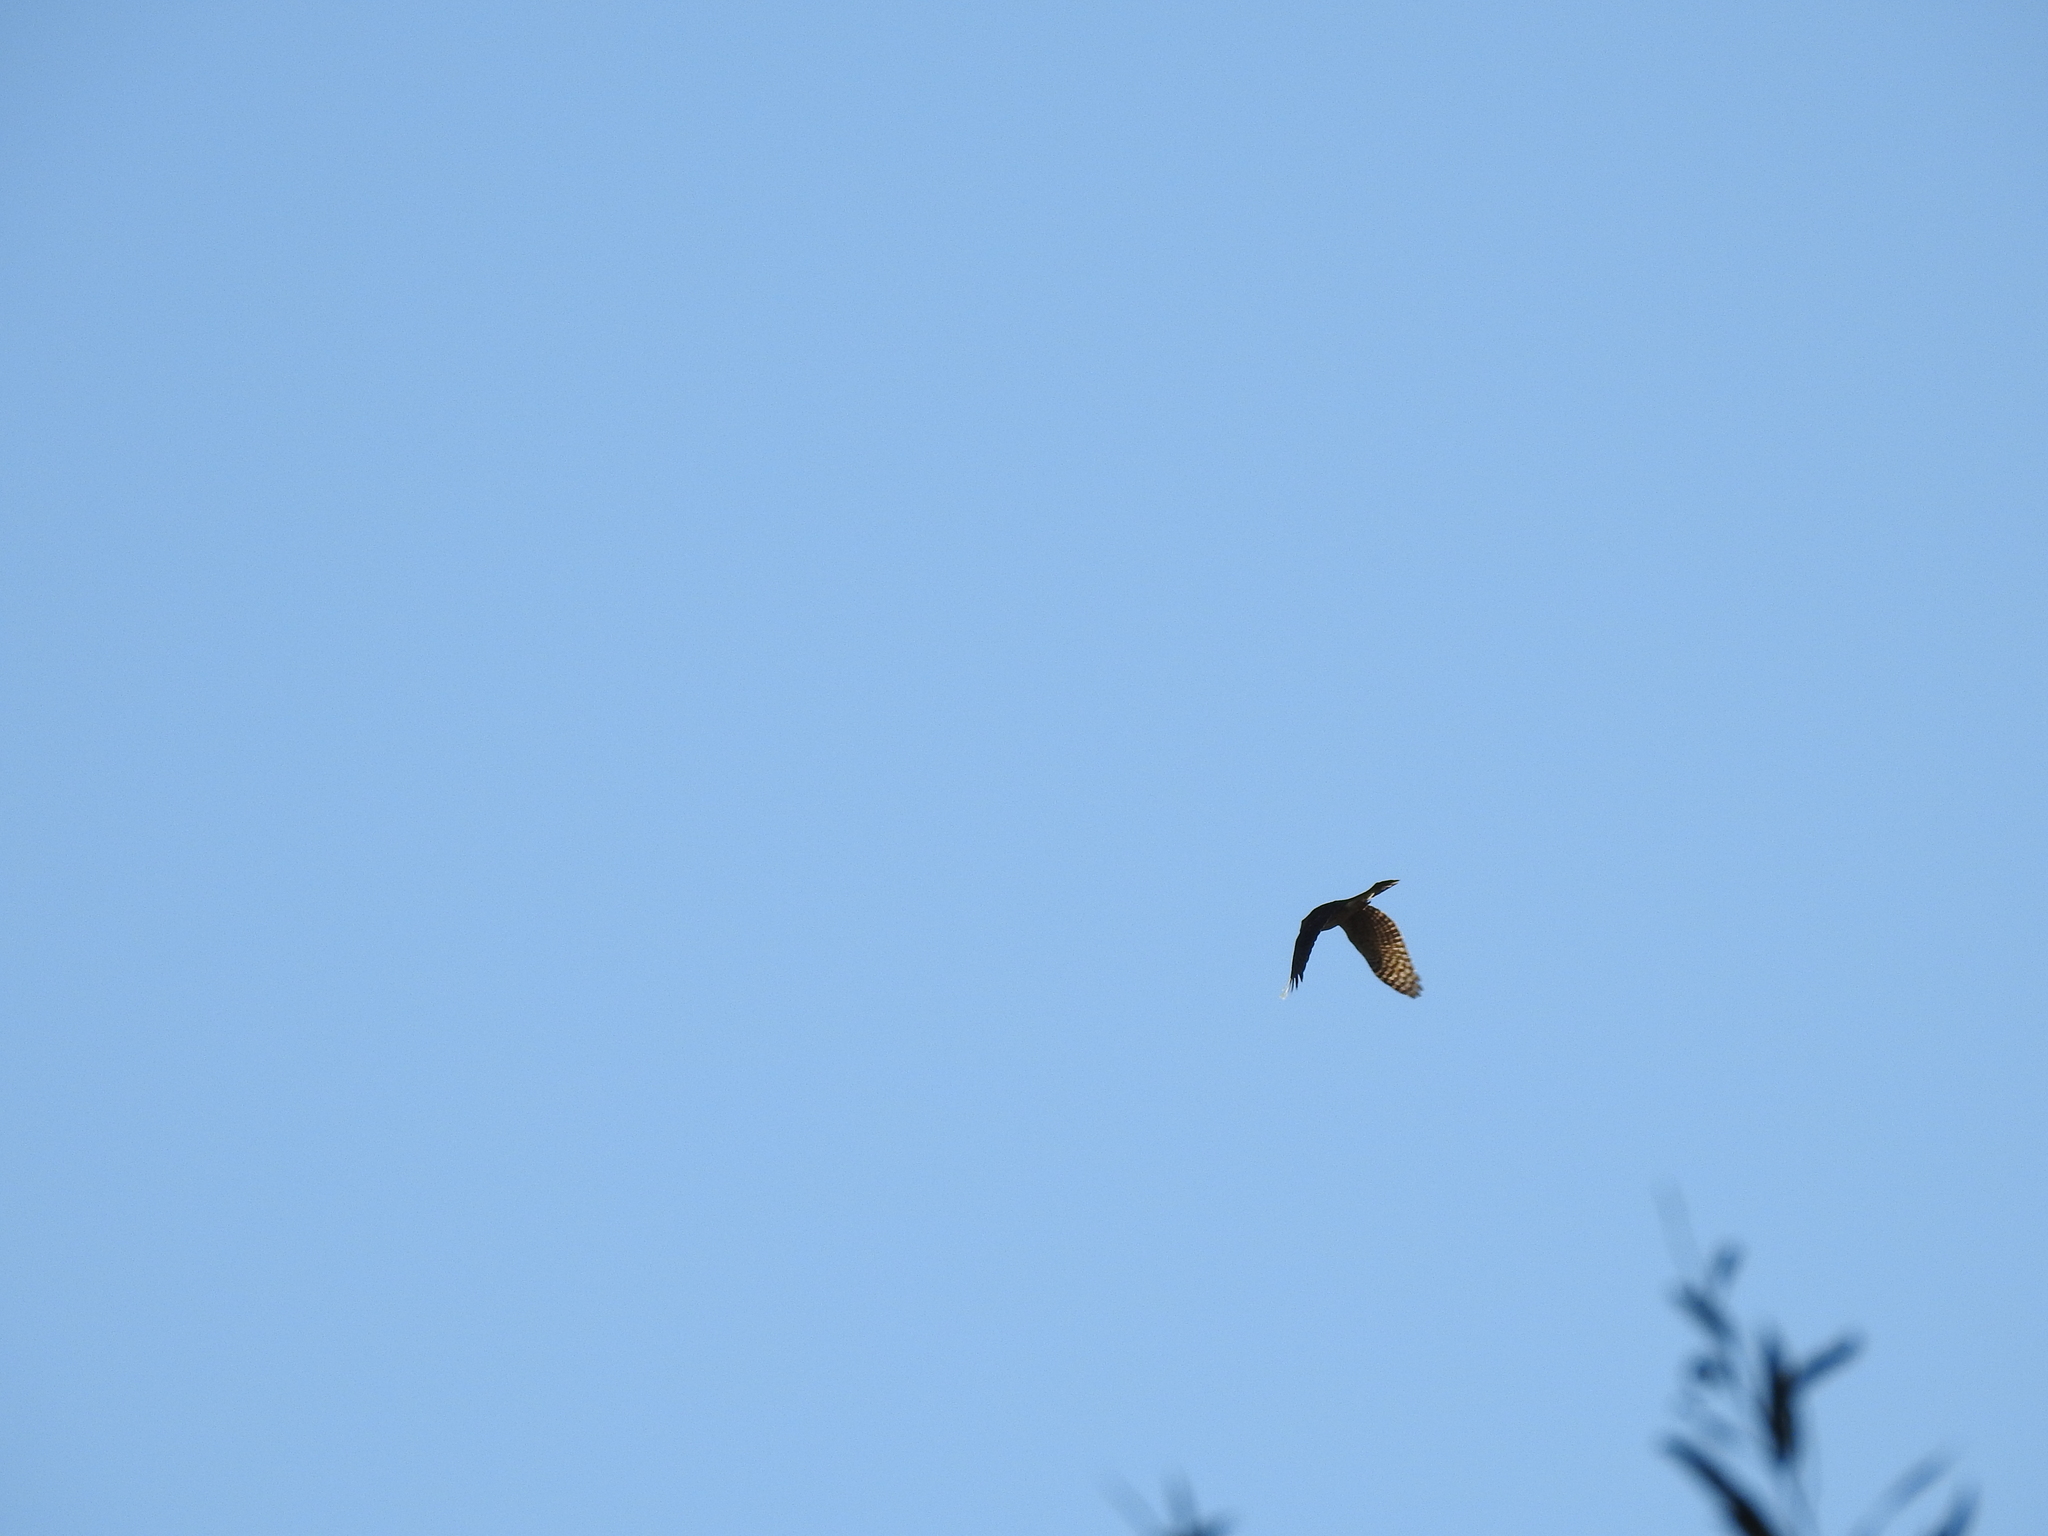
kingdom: Animalia
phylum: Chordata
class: Aves
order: Accipitriformes
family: Accipitridae
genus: Accipiter
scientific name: Accipiter
